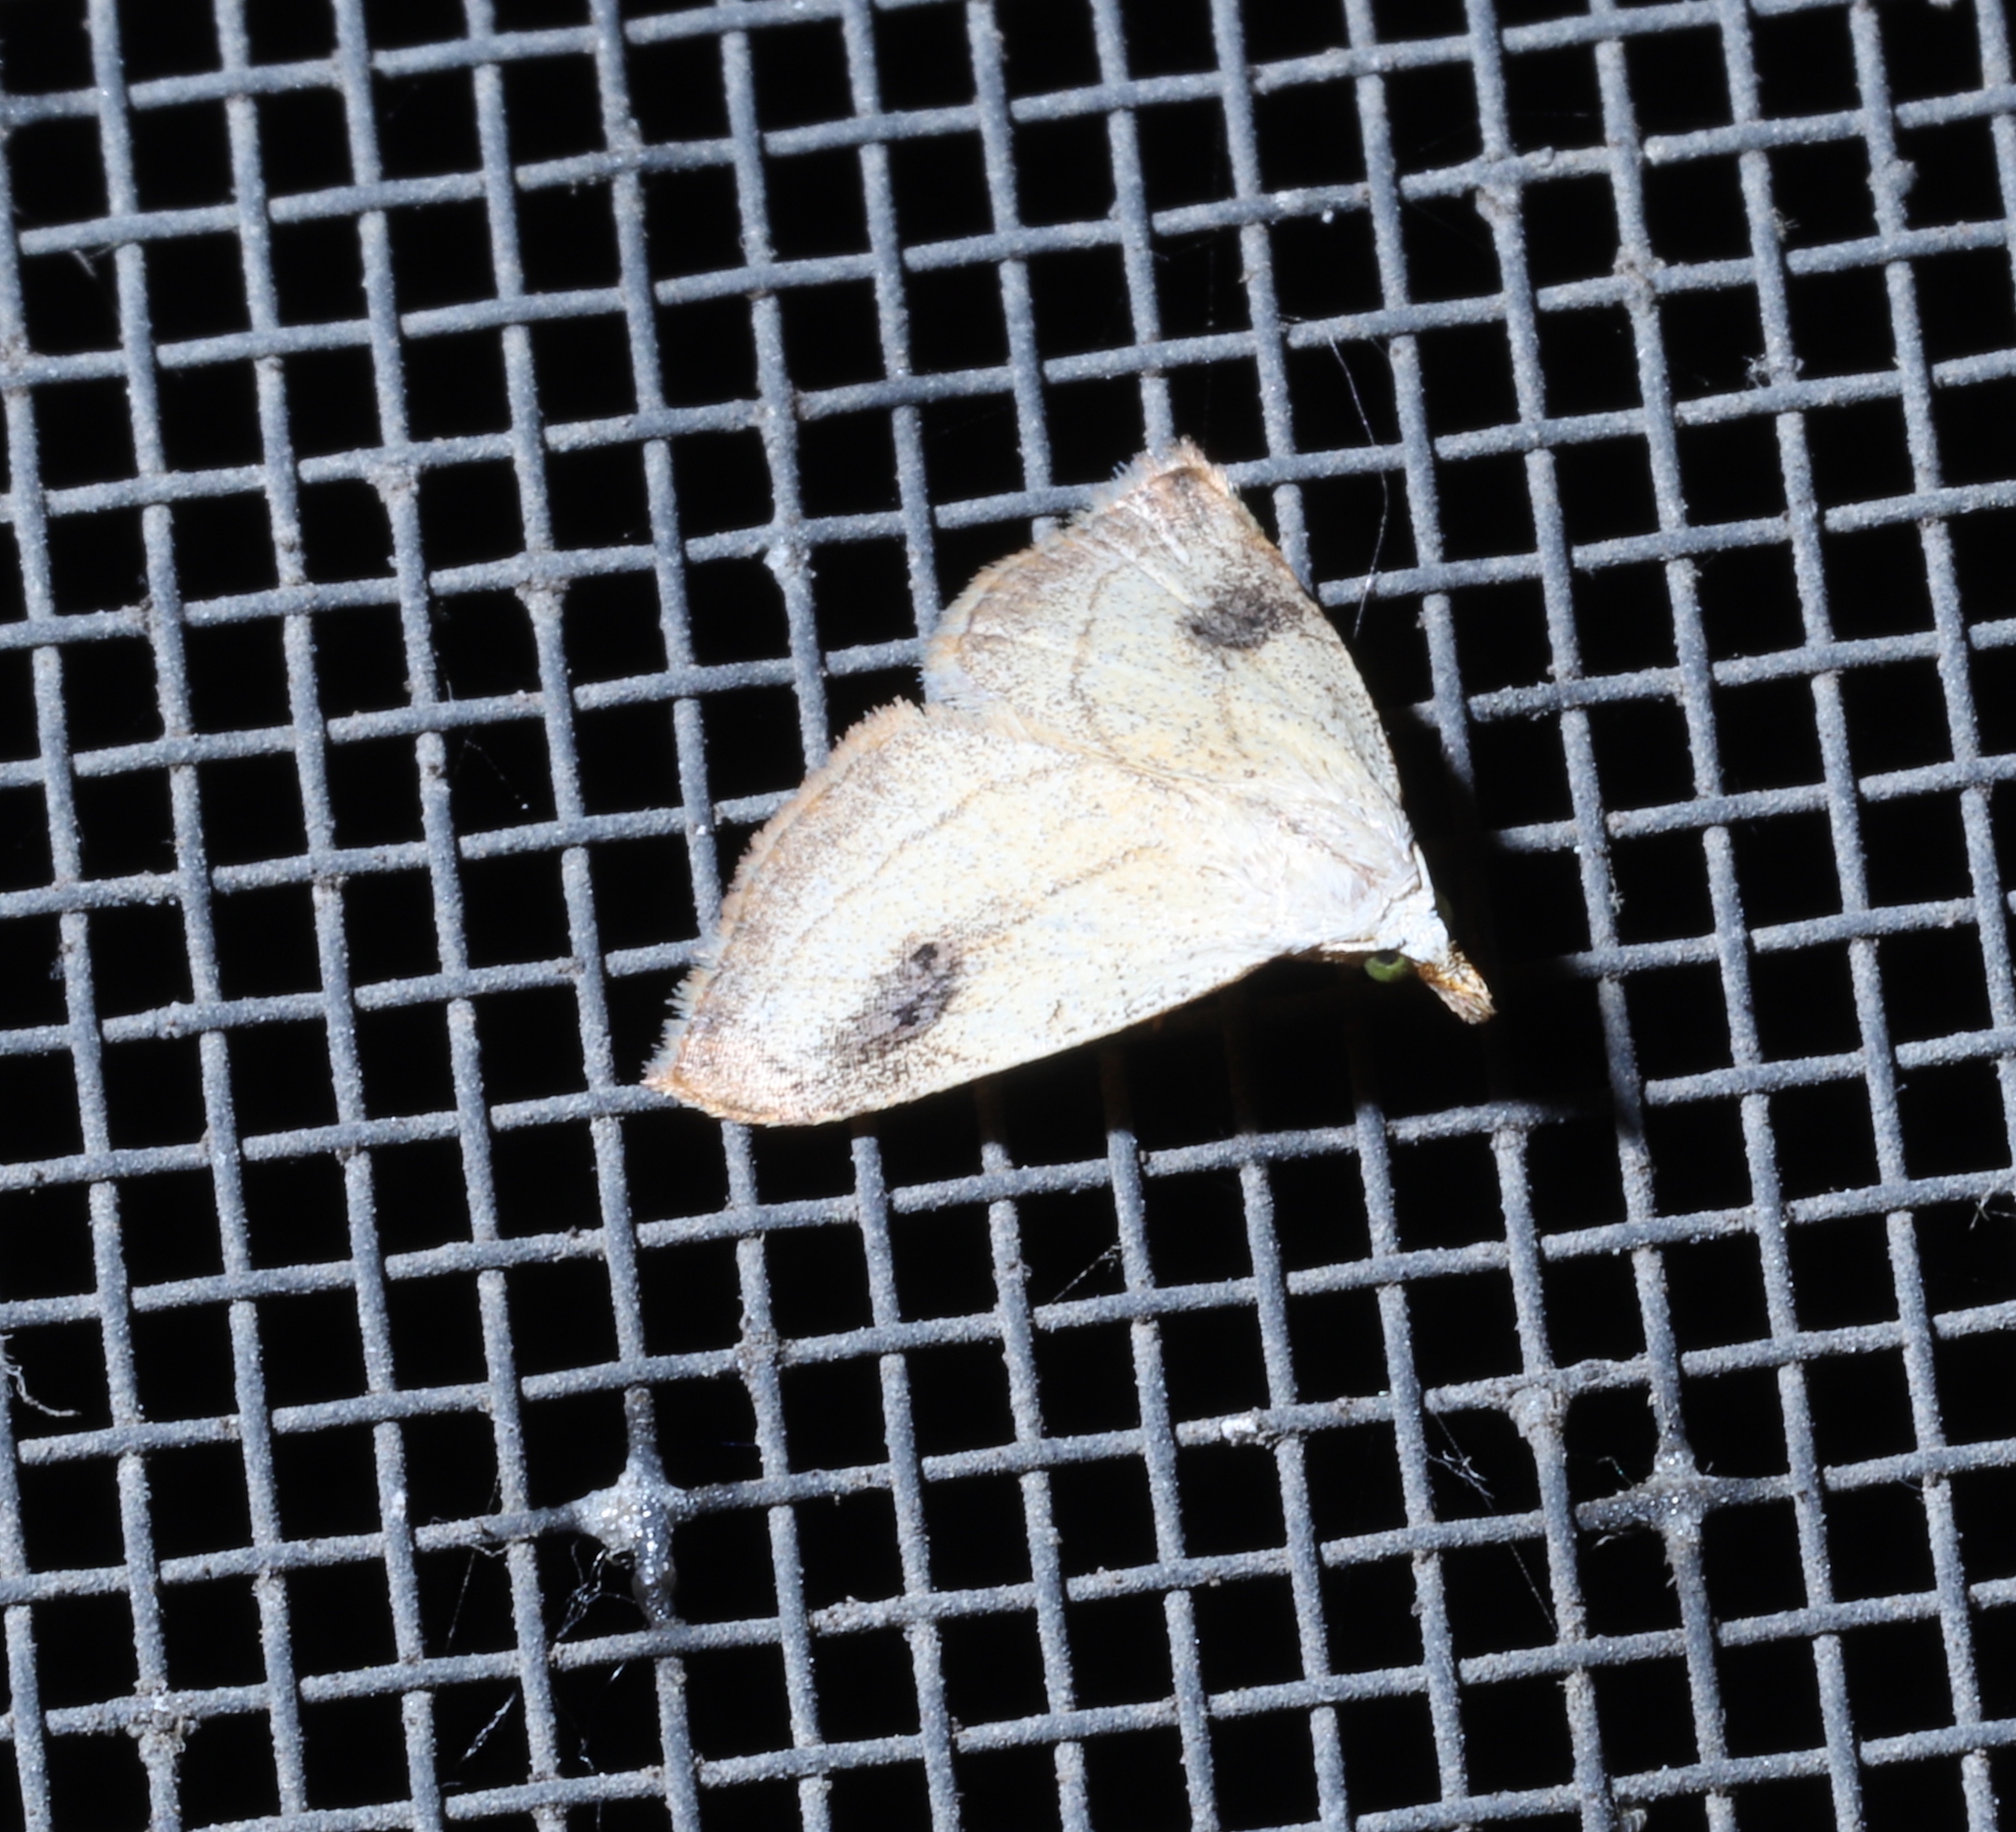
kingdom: Animalia
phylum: Arthropoda
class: Insecta
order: Lepidoptera
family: Erebidae
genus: Rivula
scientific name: Rivula propinqualis
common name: Spotted grass moth
